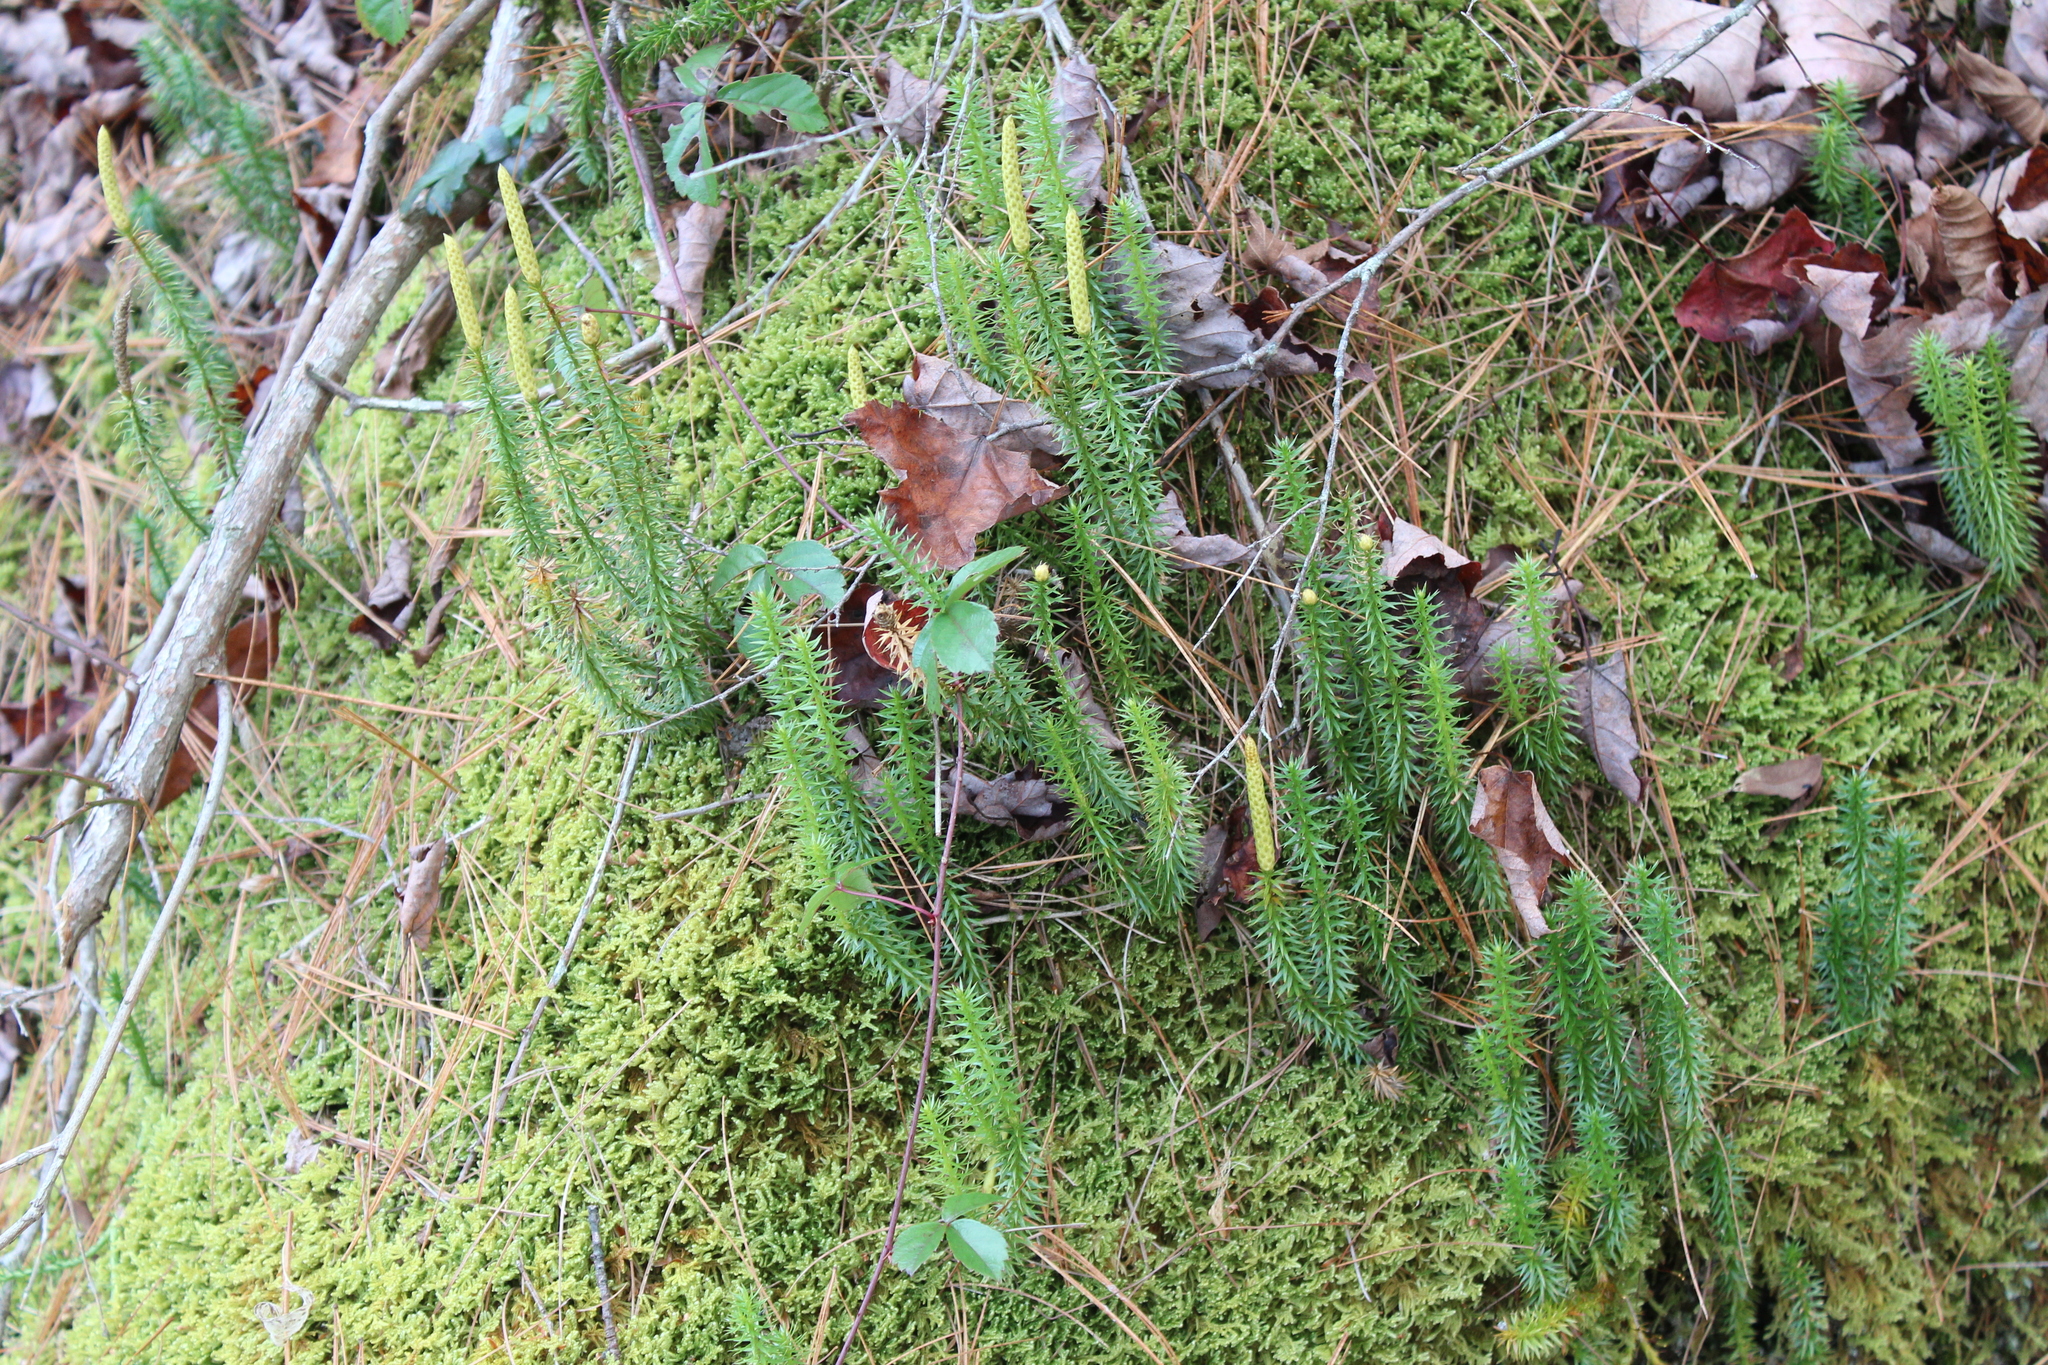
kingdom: Plantae
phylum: Tracheophyta
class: Lycopodiopsida
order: Lycopodiales
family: Lycopodiaceae
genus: Spinulum
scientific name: Spinulum annotinum
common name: Interrupted club-moss
